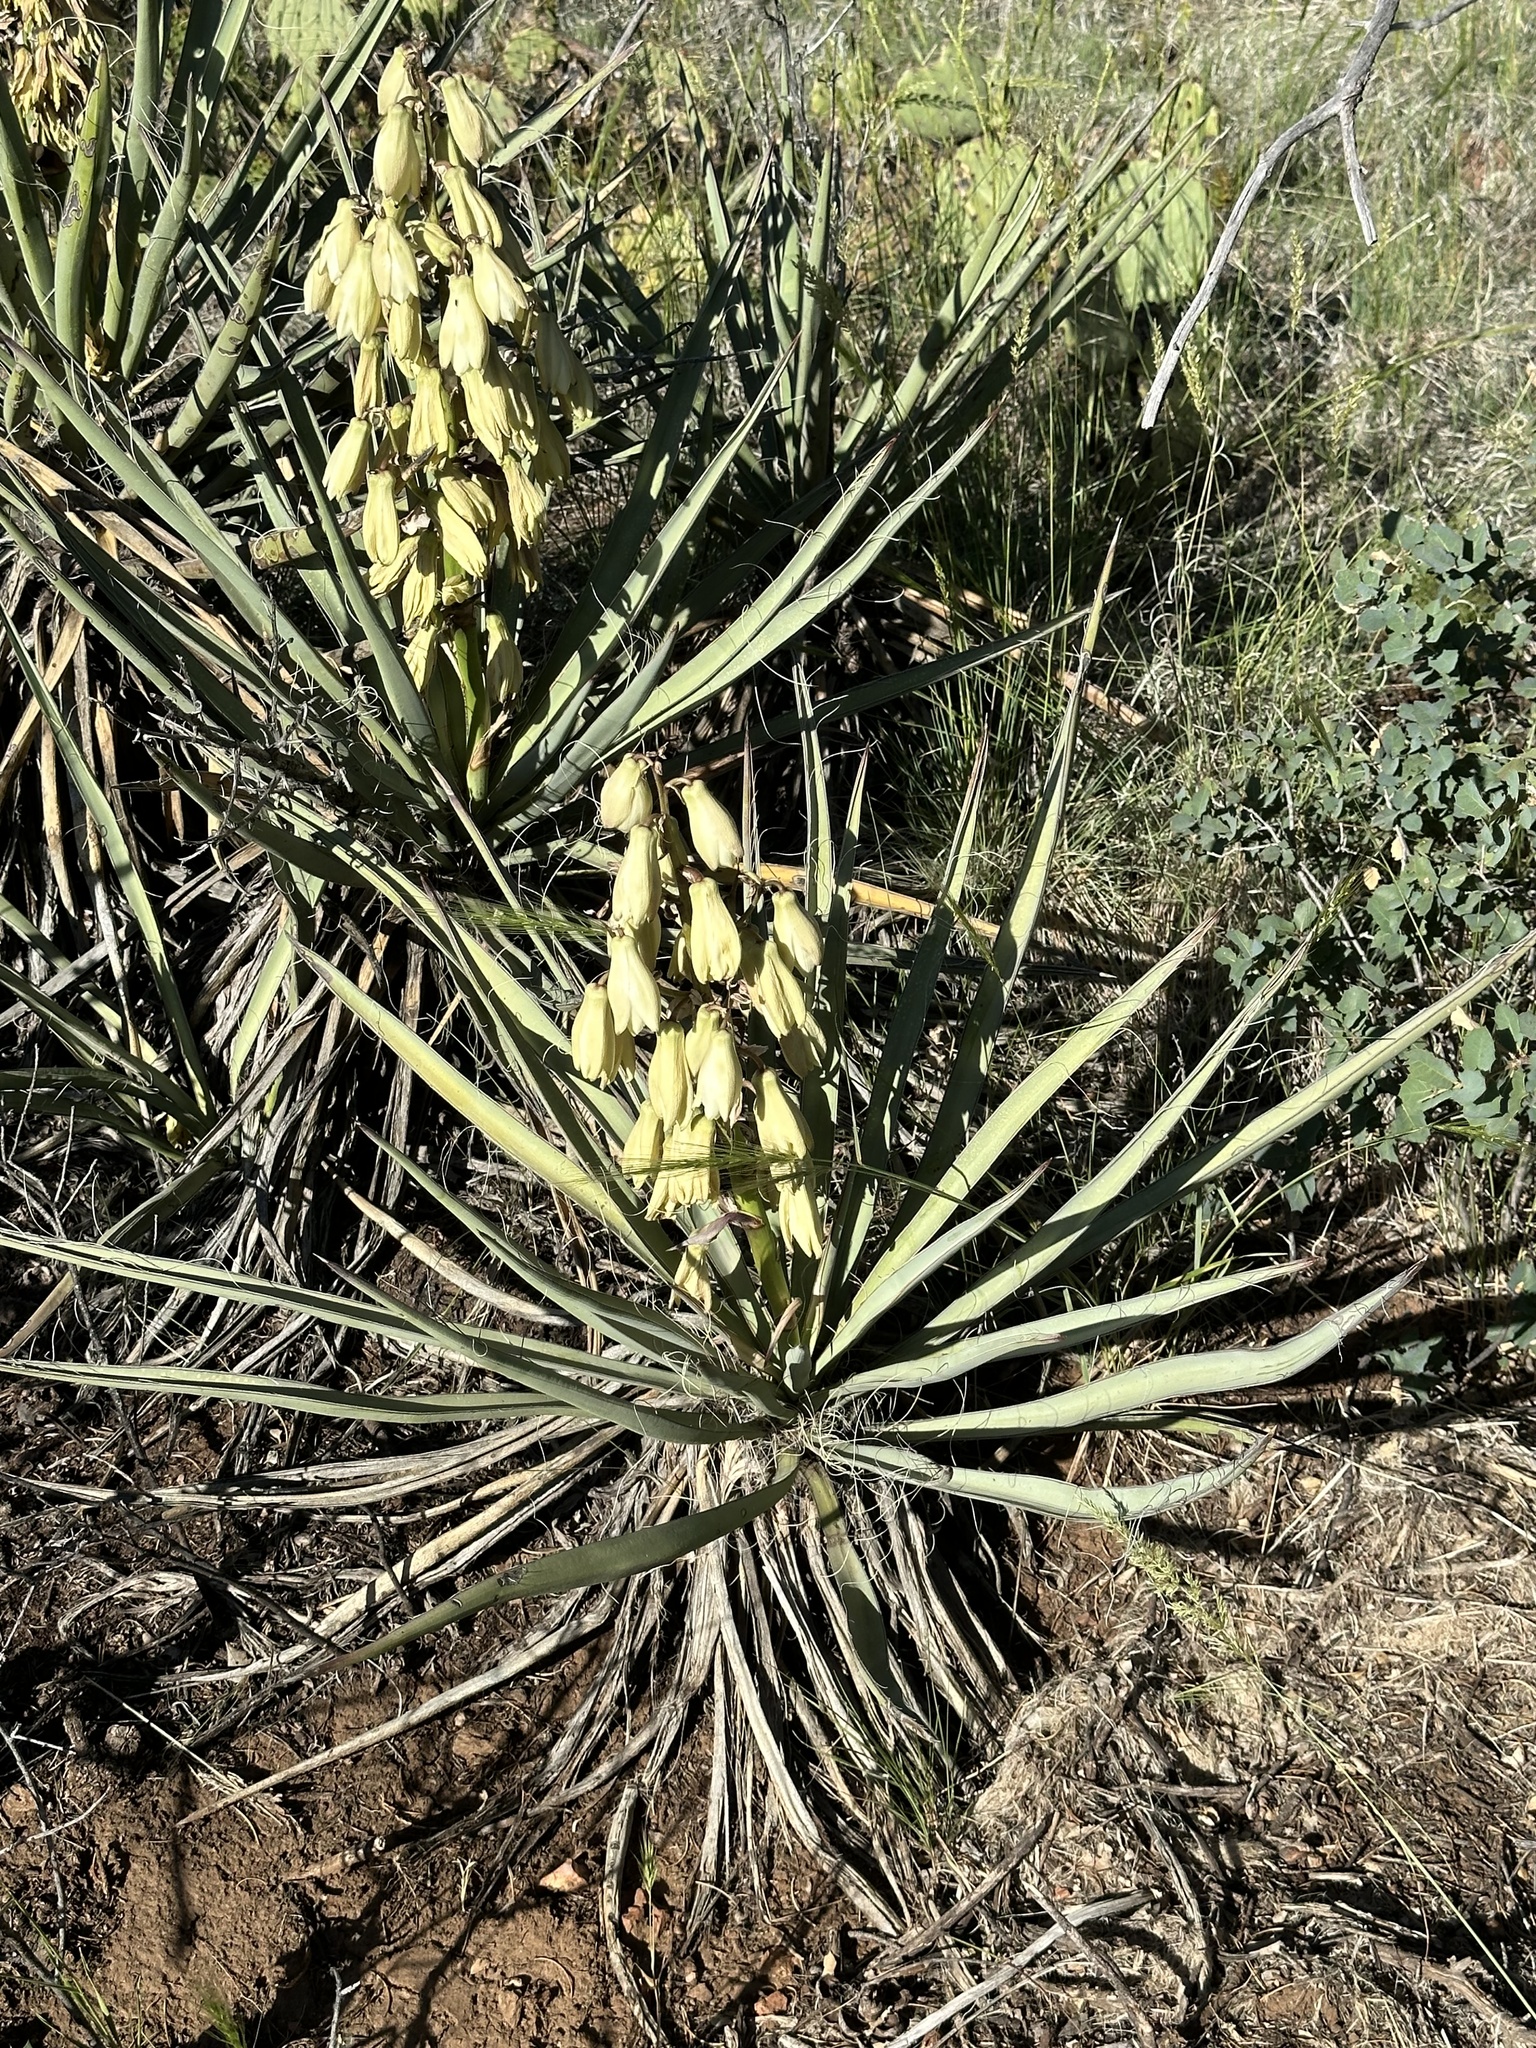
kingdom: Plantae
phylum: Tracheophyta
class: Liliopsida
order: Asparagales
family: Asparagaceae
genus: Yucca
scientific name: Yucca baccata
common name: Banana yucca
